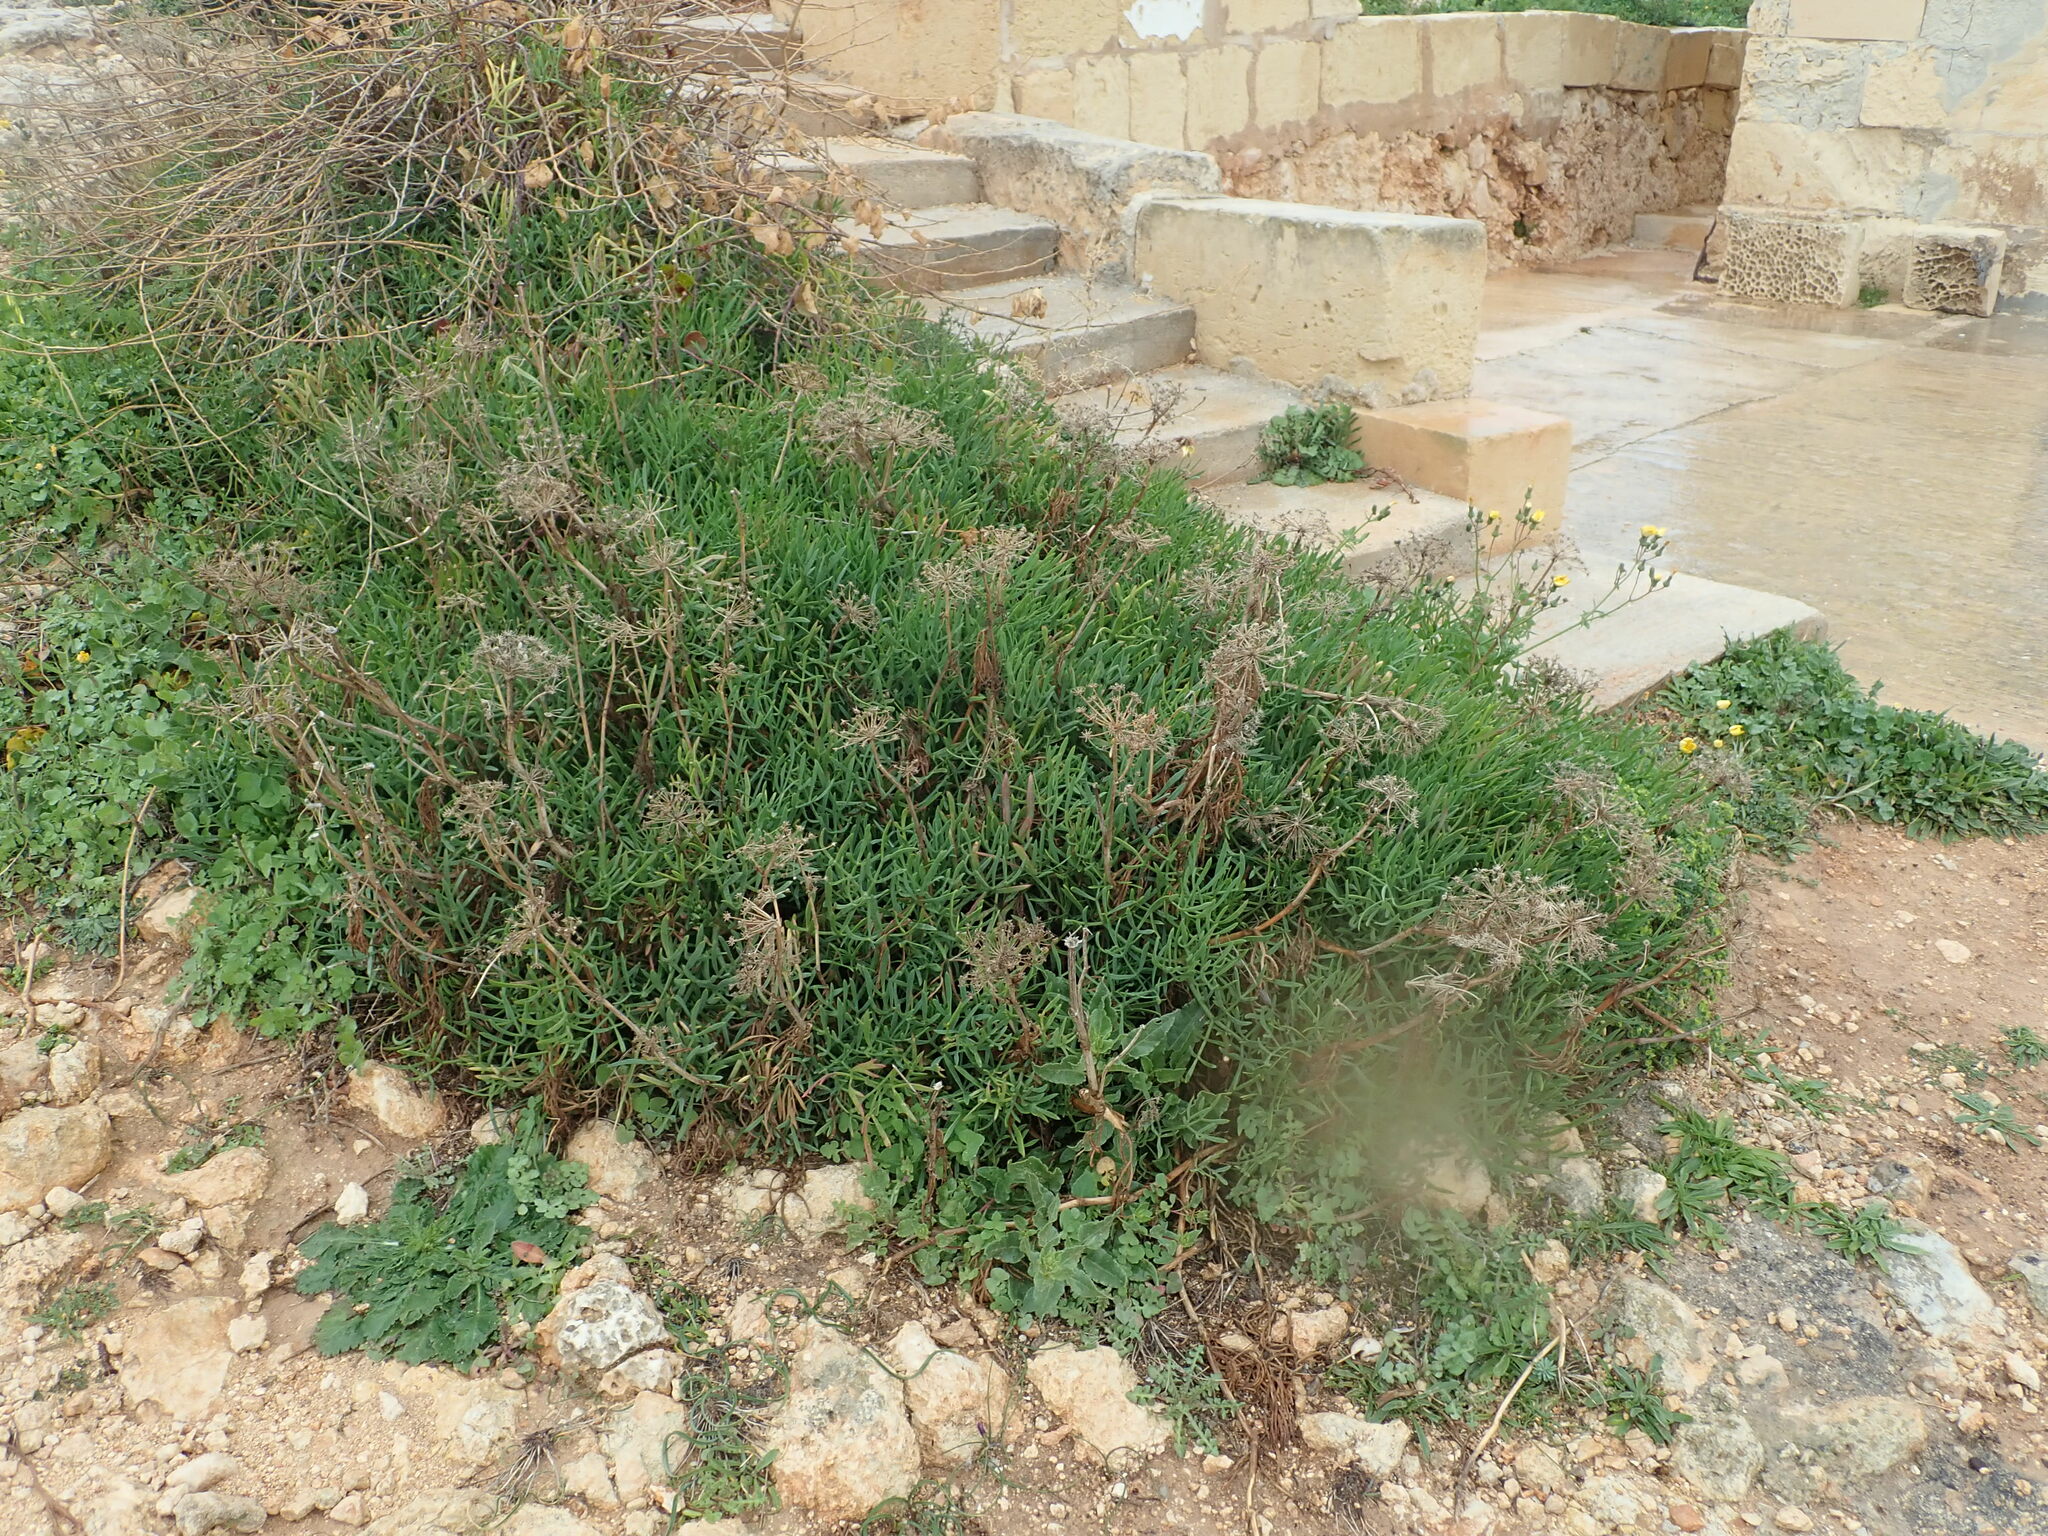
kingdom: Plantae
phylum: Tracheophyta
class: Magnoliopsida
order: Apiales
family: Apiaceae
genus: Crithmum
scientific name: Crithmum maritimum
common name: Rock samphire
